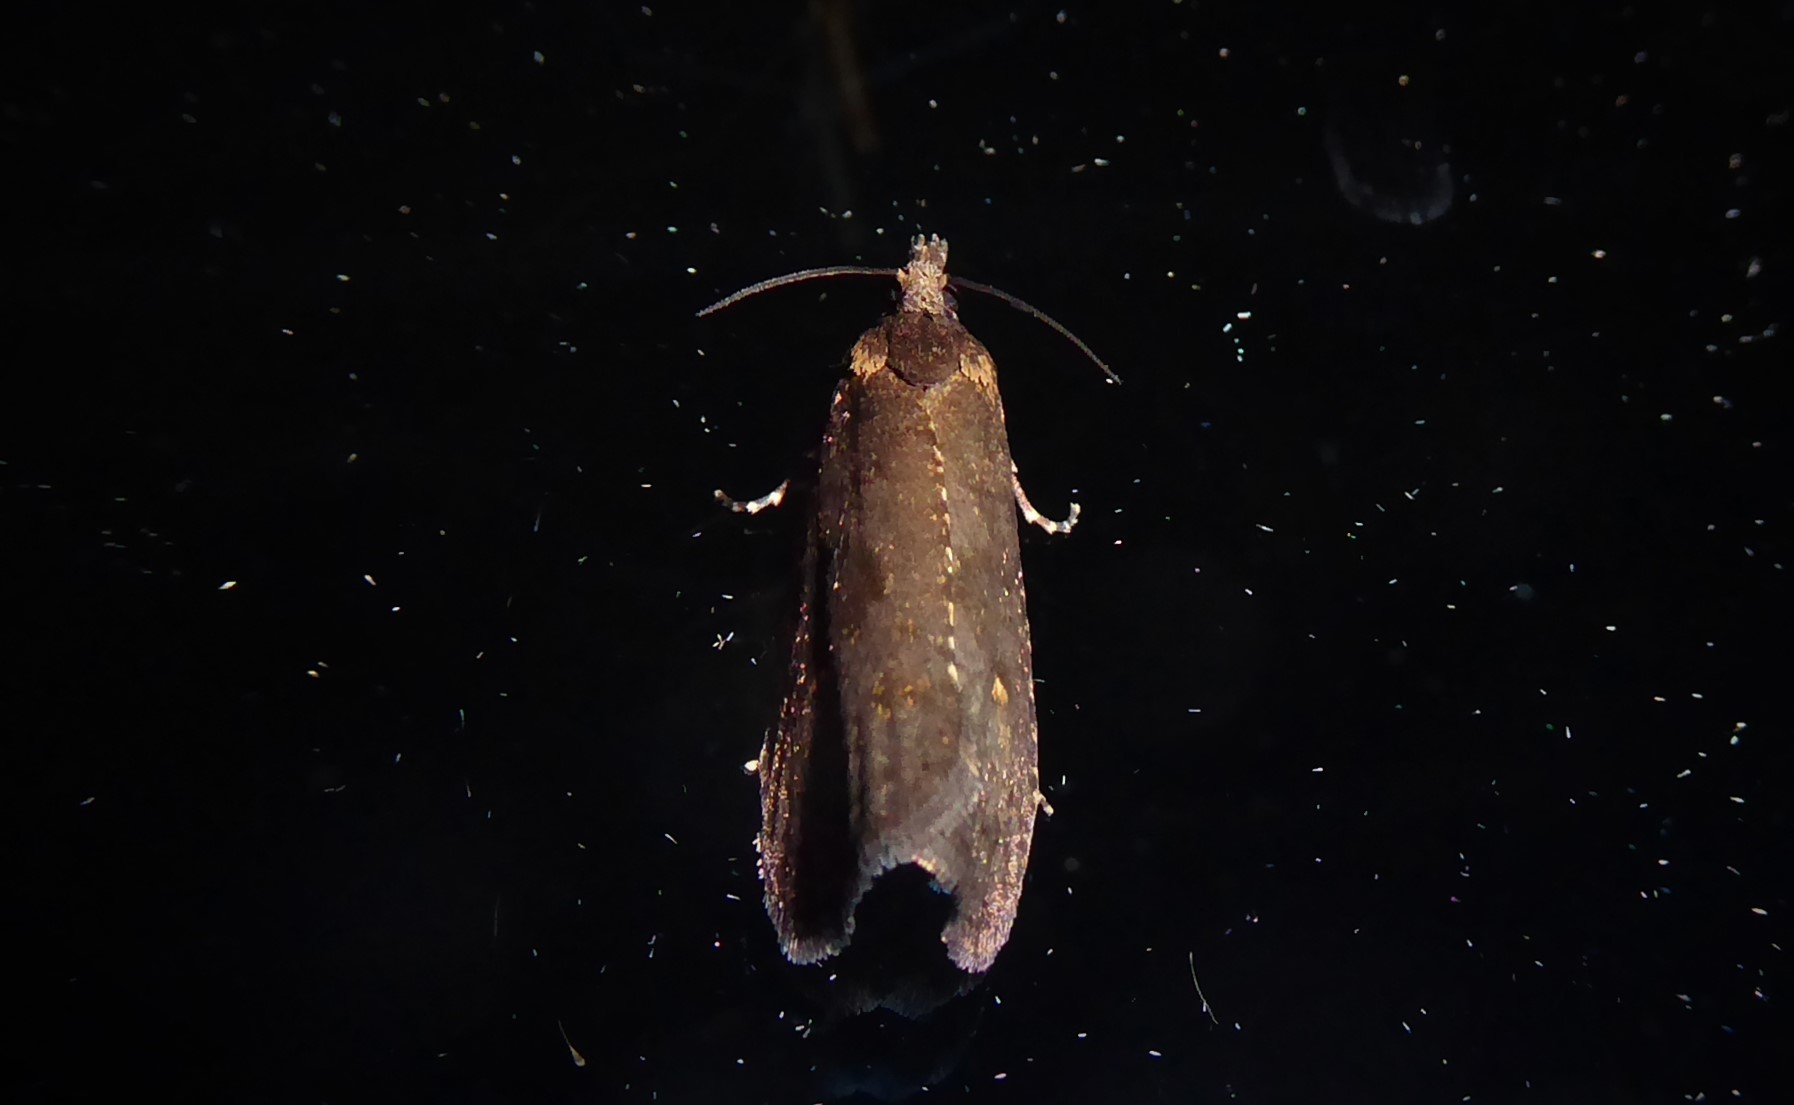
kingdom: Animalia
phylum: Arthropoda
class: Insecta
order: Lepidoptera
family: Tortricidae
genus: Cryptaspasma
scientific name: Cryptaspasma querula
